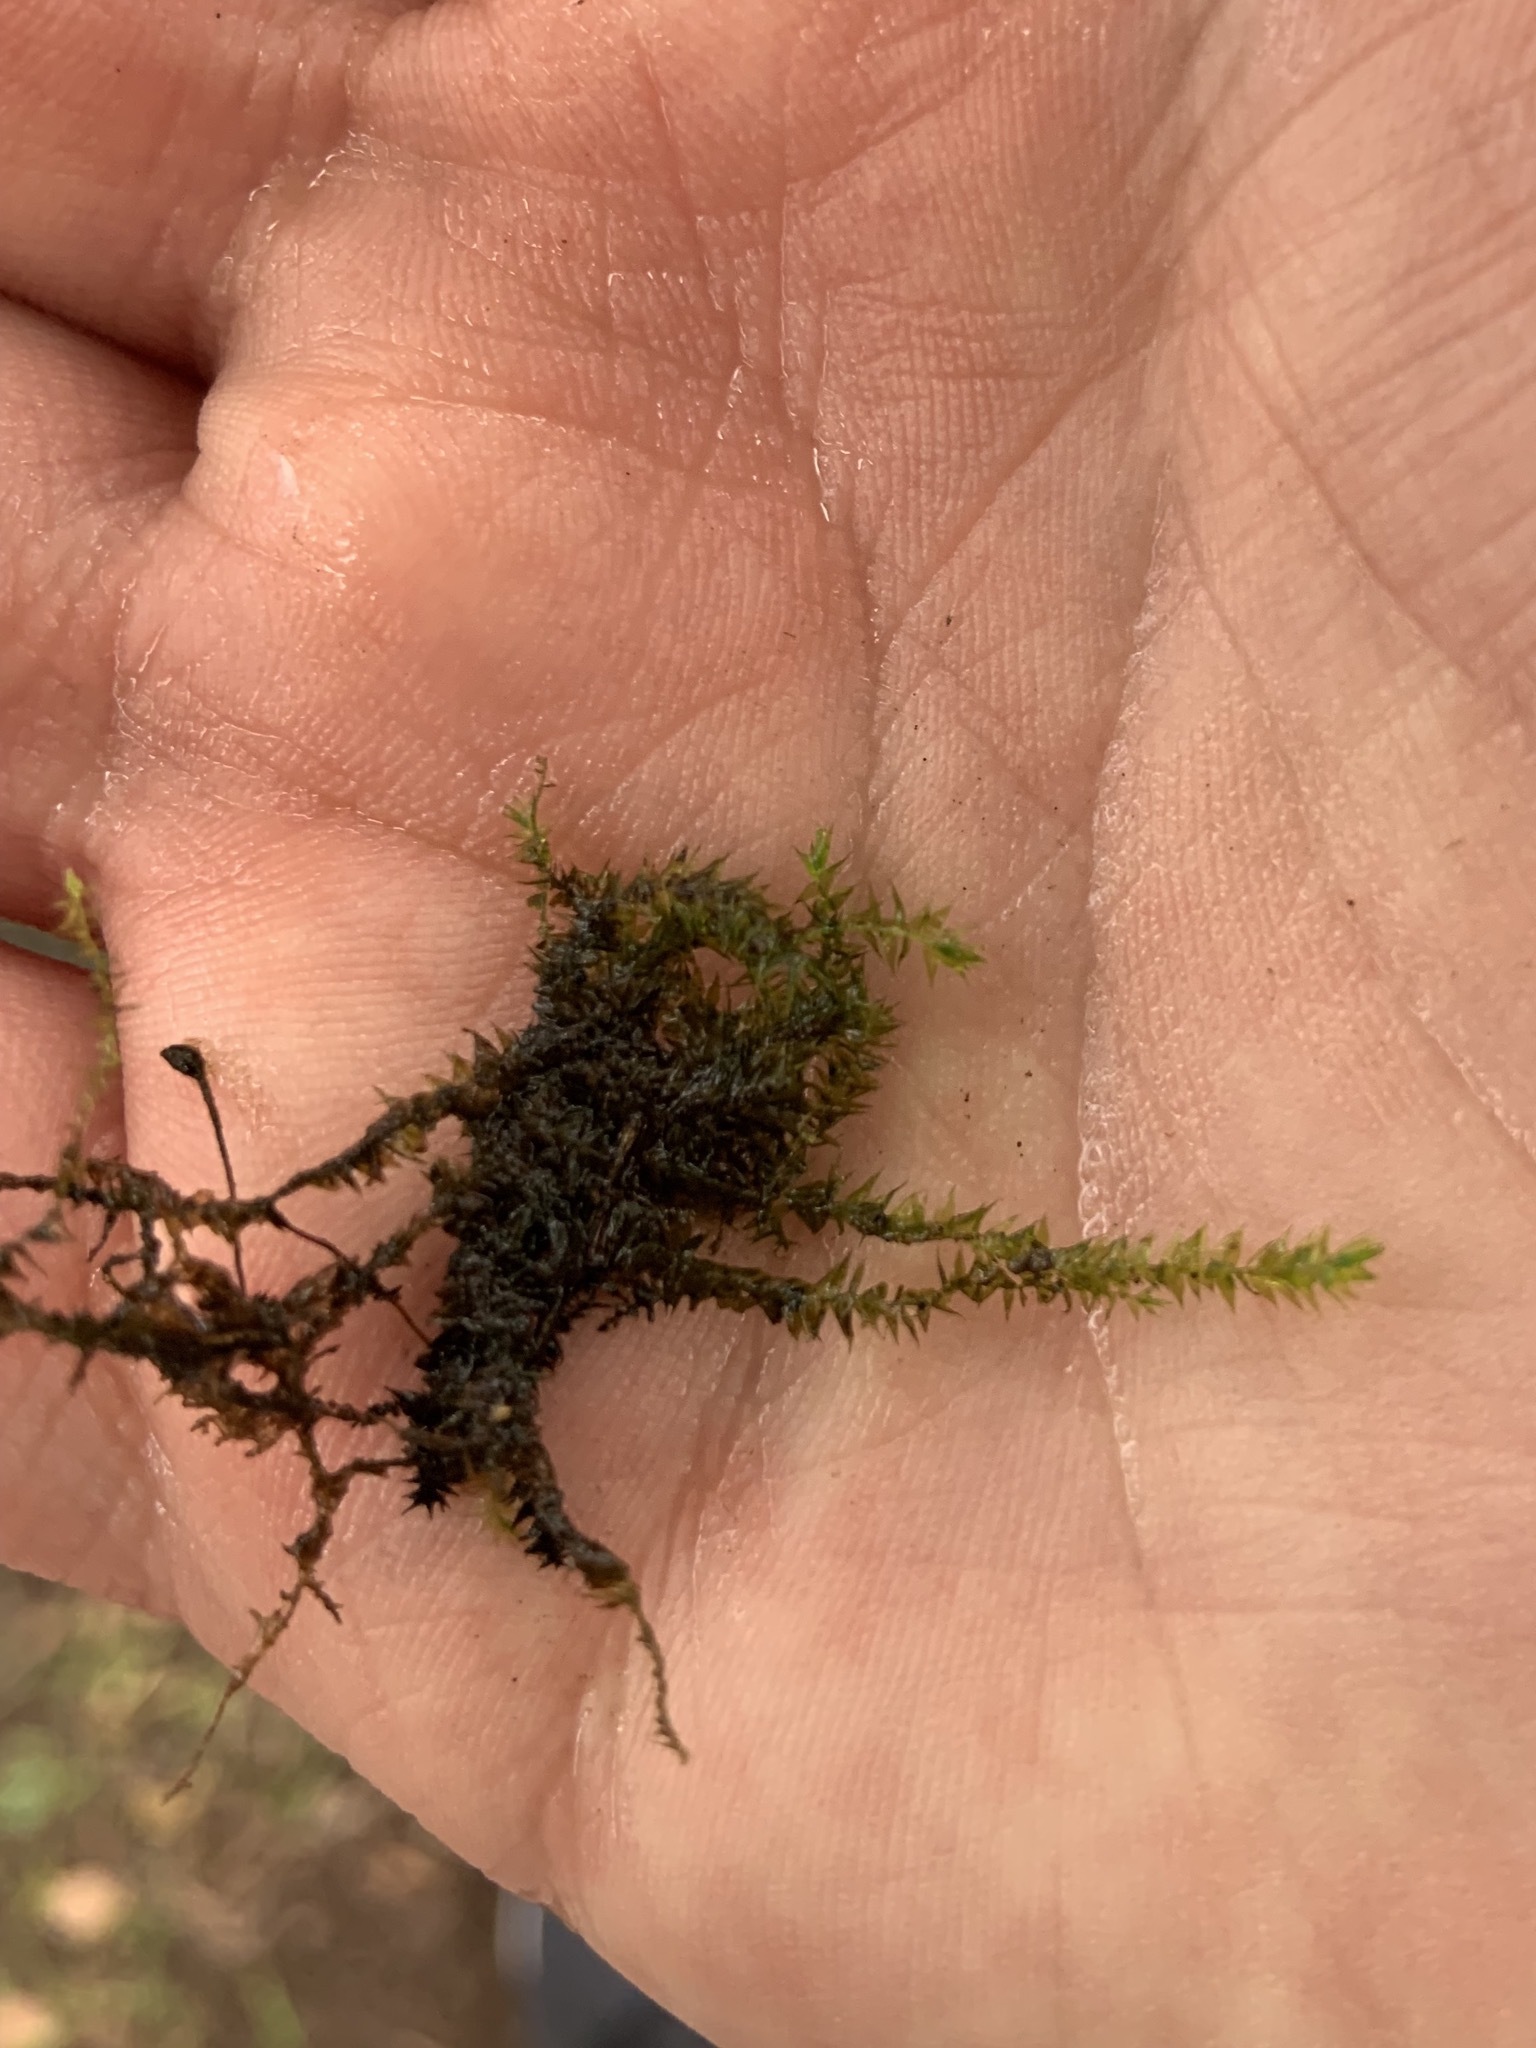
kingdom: Plantae
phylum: Bryophyta
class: Bryopsida
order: Hypnales
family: Amblystegiaceae
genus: Hygroamblystegium
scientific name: Hygroamblystegium humile
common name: Constricted feather-moss
